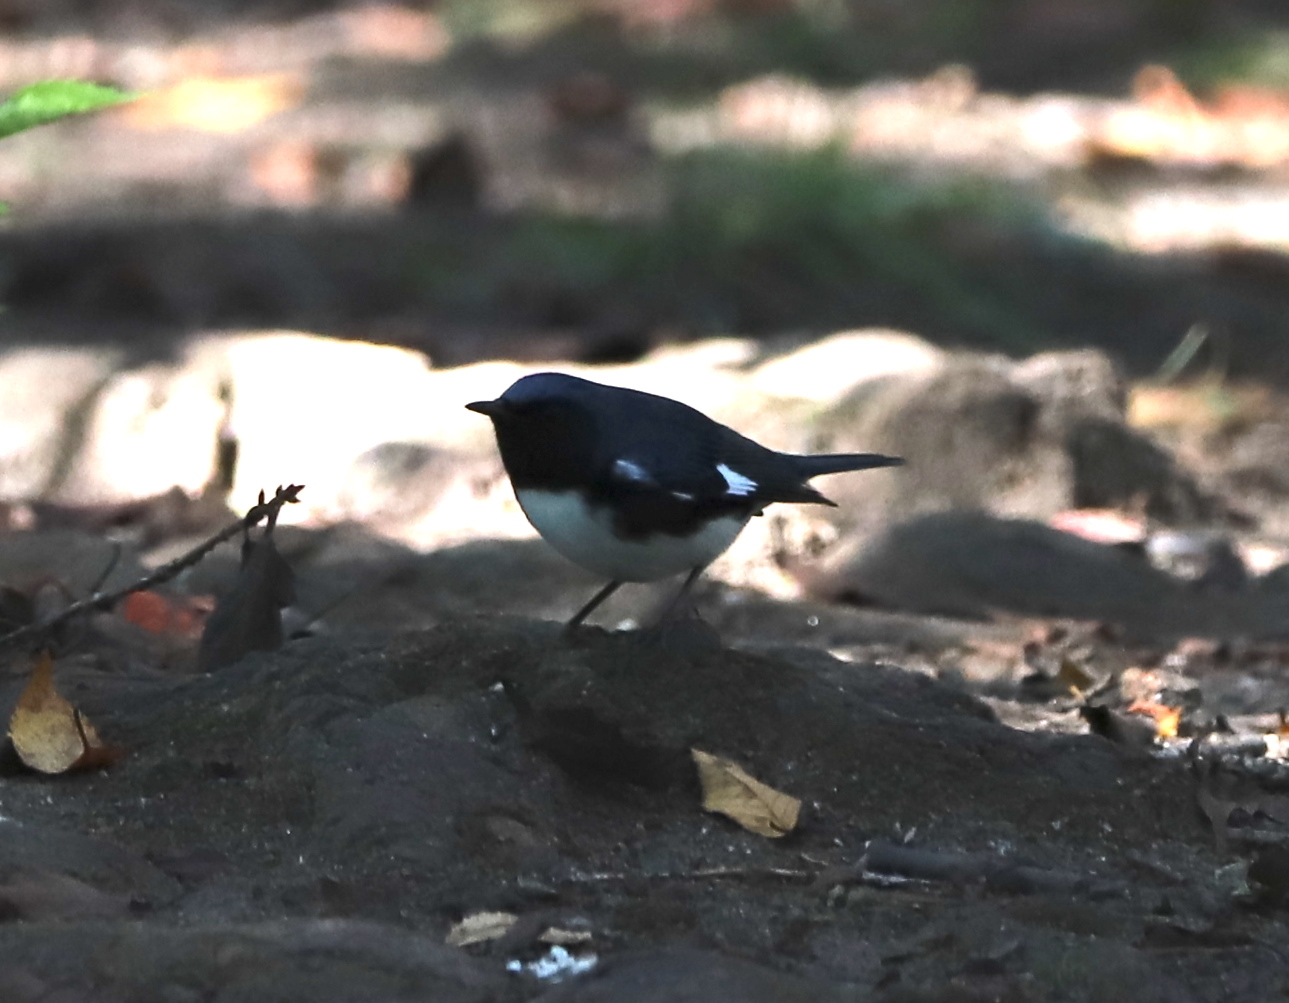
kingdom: Animalia
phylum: Chordata
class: Aves
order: Passeriformes
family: Parulidae
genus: Setophaga
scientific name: Setophaga caerulescens
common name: Black-throated blue warbler
